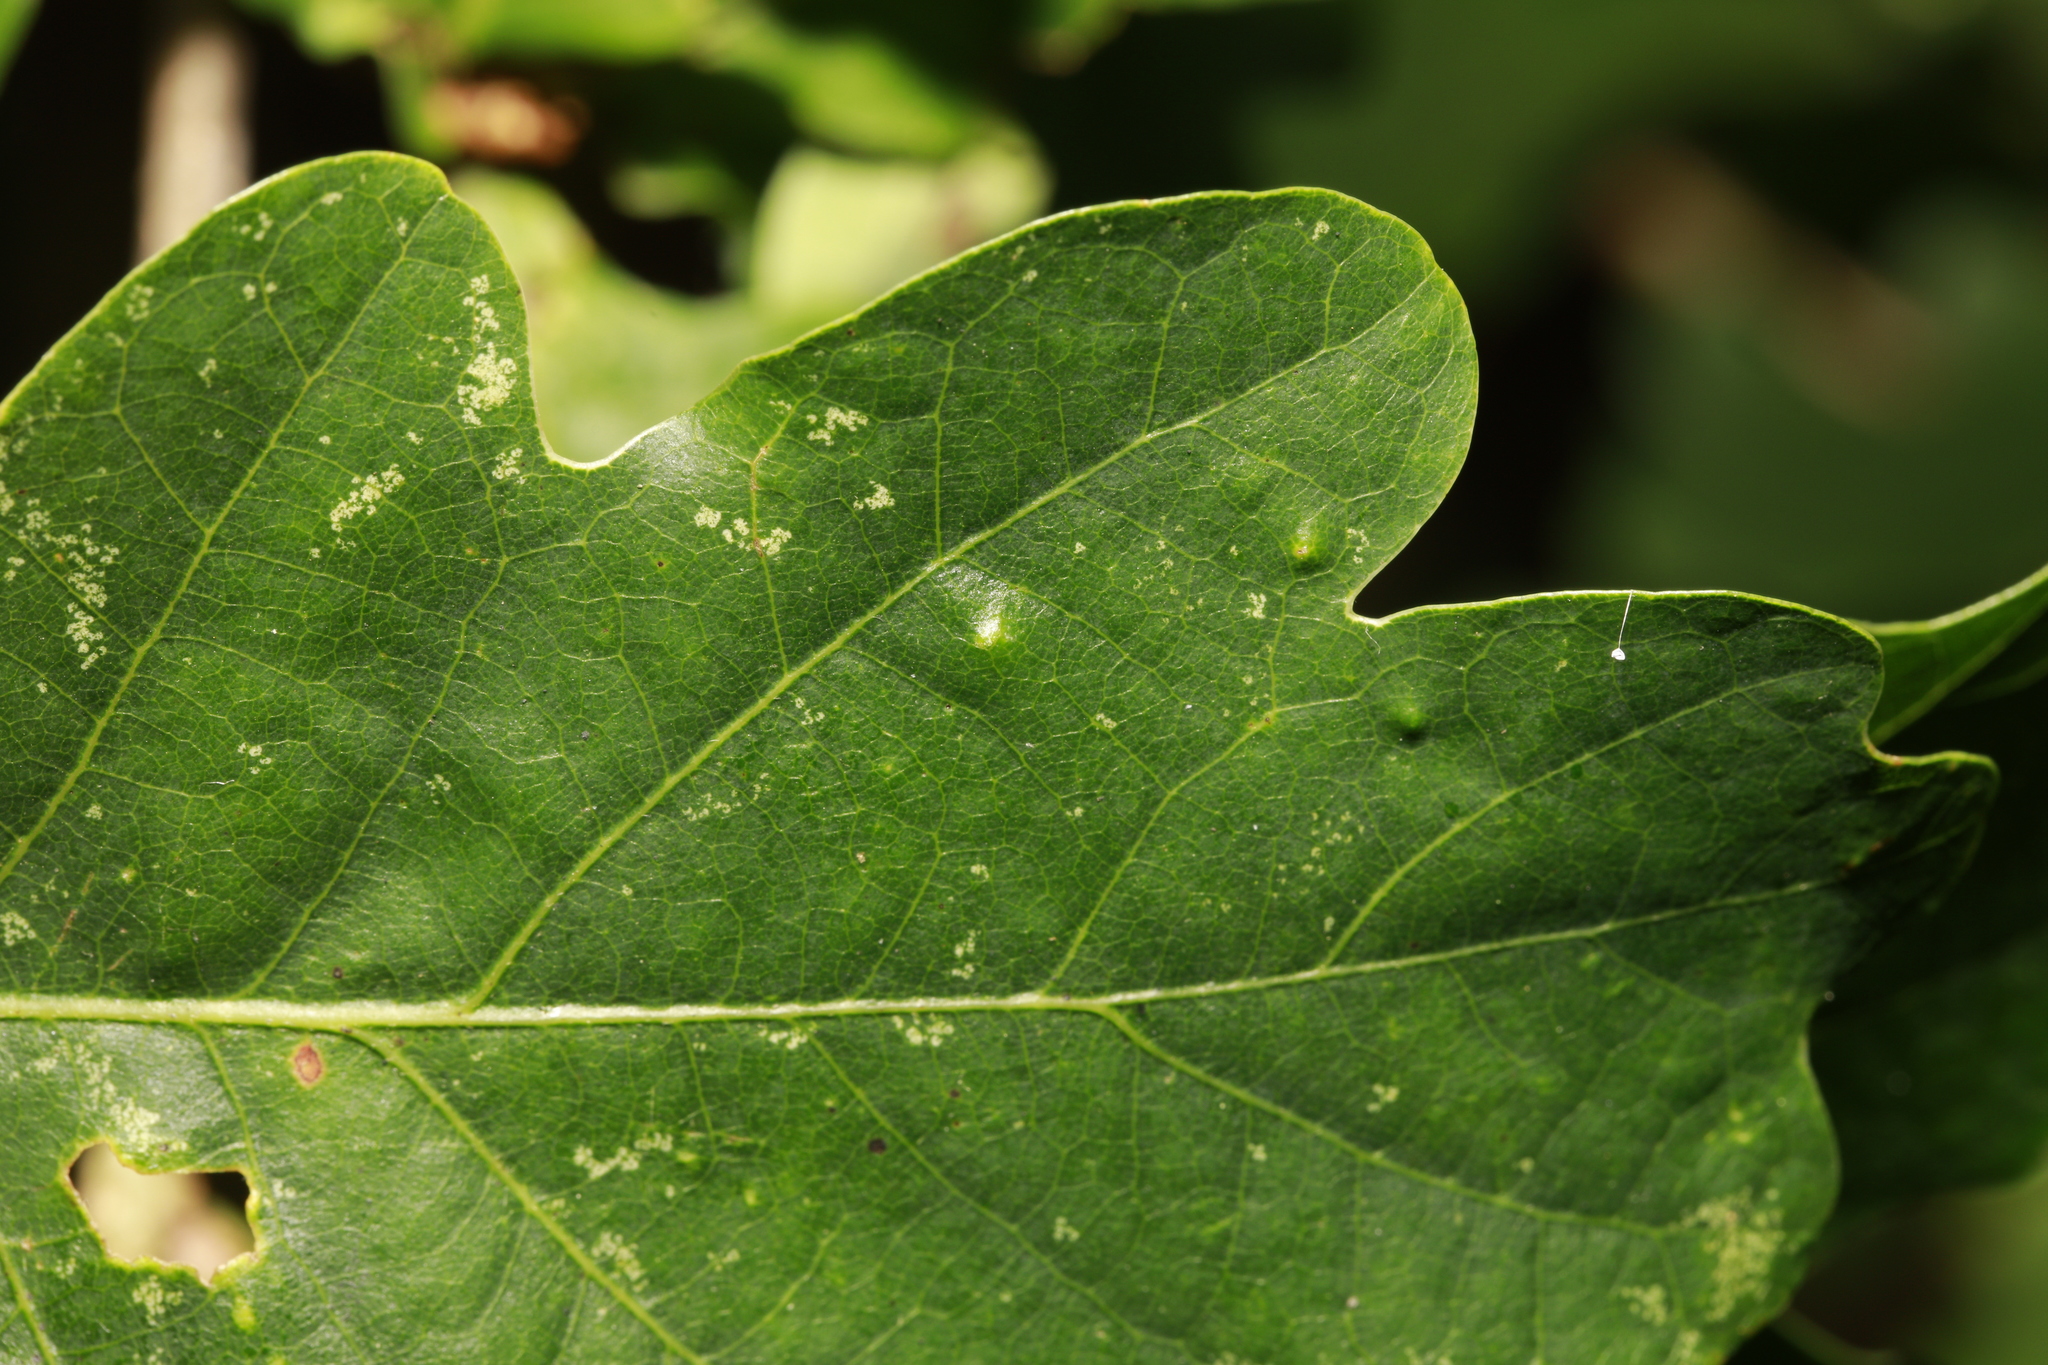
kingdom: Animalia
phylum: Arthropoda
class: Insecta
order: Hemiptera
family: Triozidae
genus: Trioza
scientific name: Trioza remota
